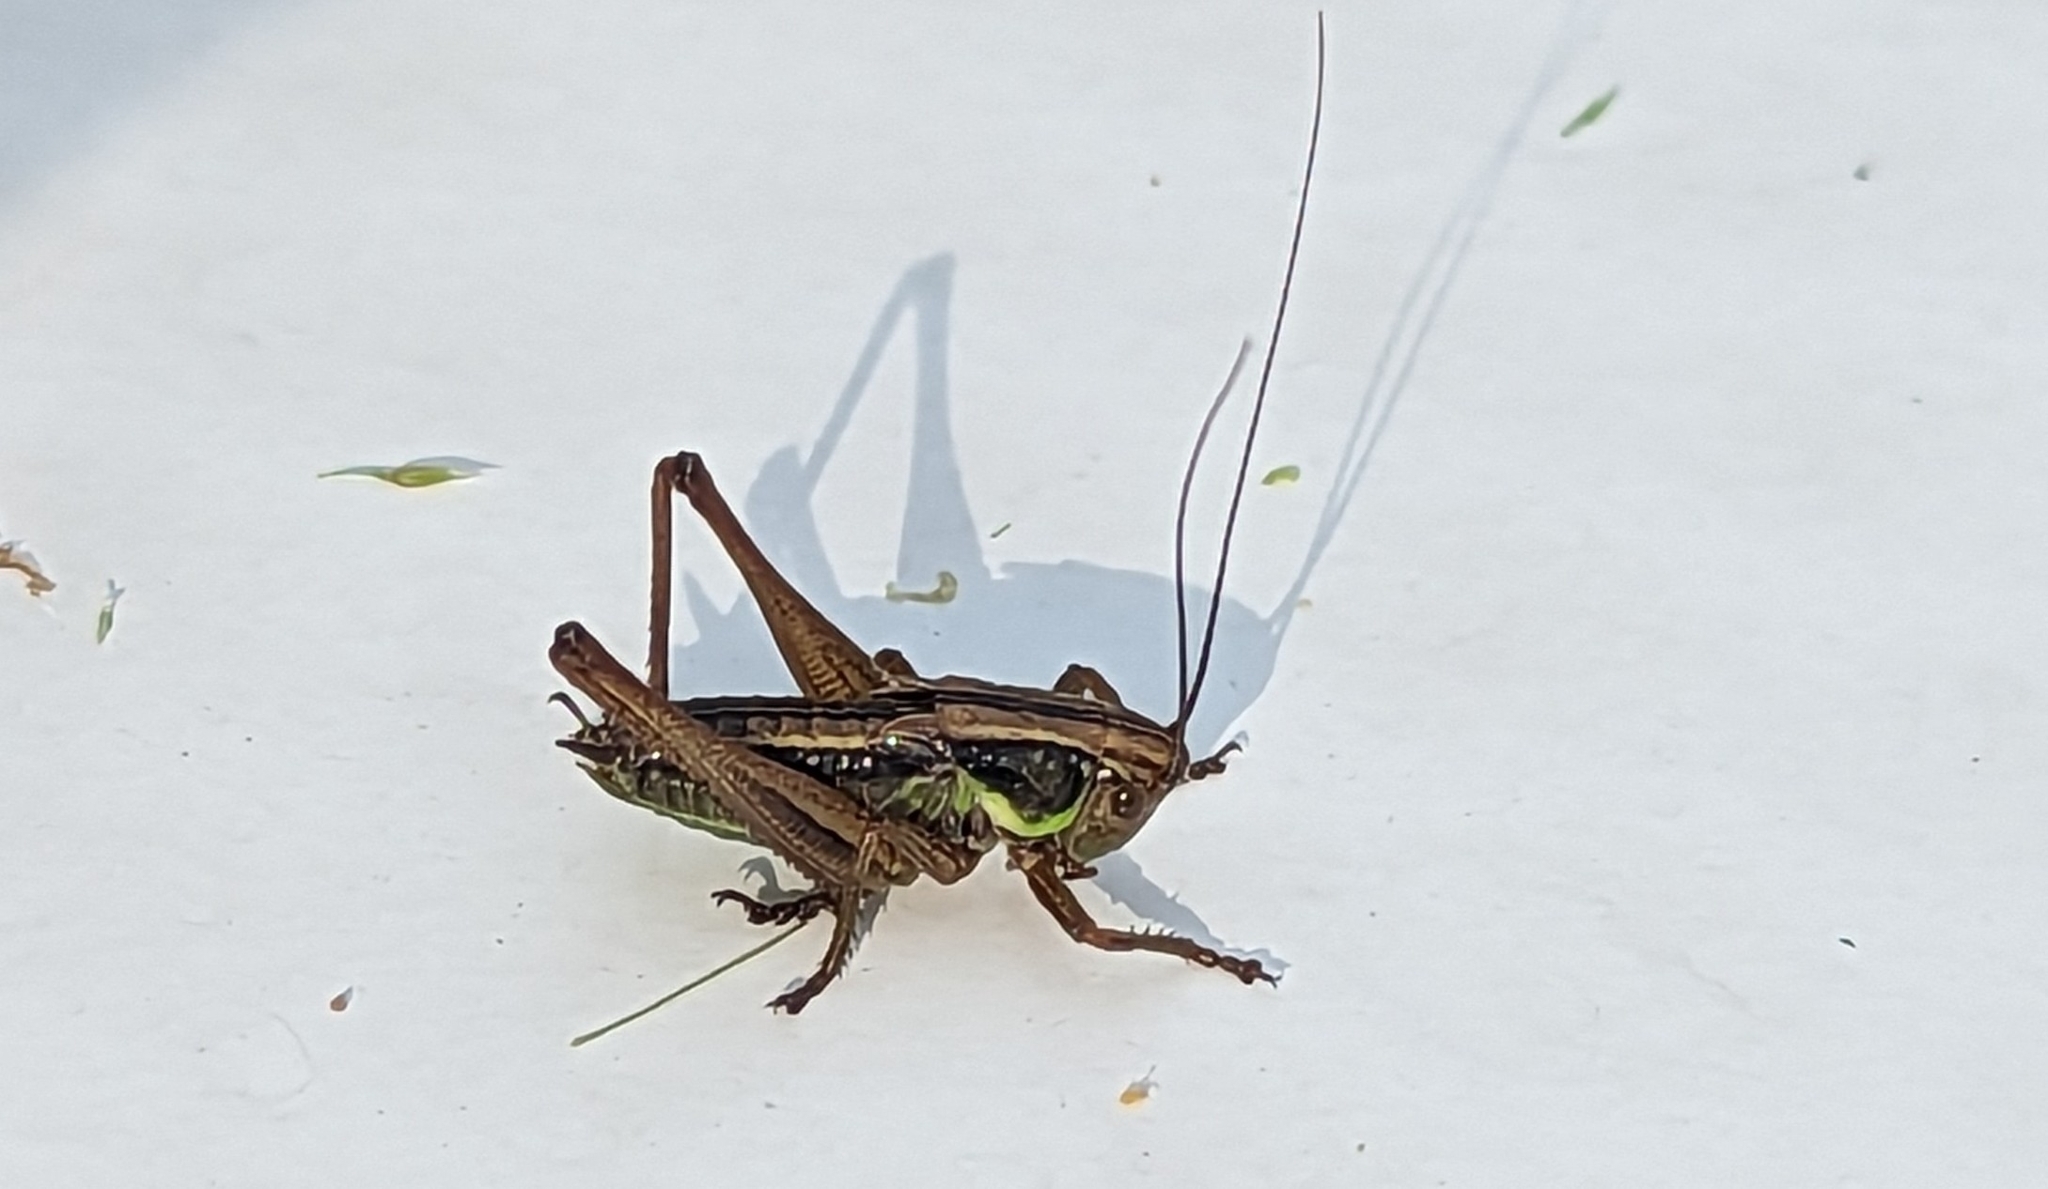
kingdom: Animalia
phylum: Arthropoda
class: Insecta
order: Orthoptera
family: Tettigoniidae
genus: Roeseliana
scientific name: Roeseliana roeselii
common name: Roesel's bush cricket
